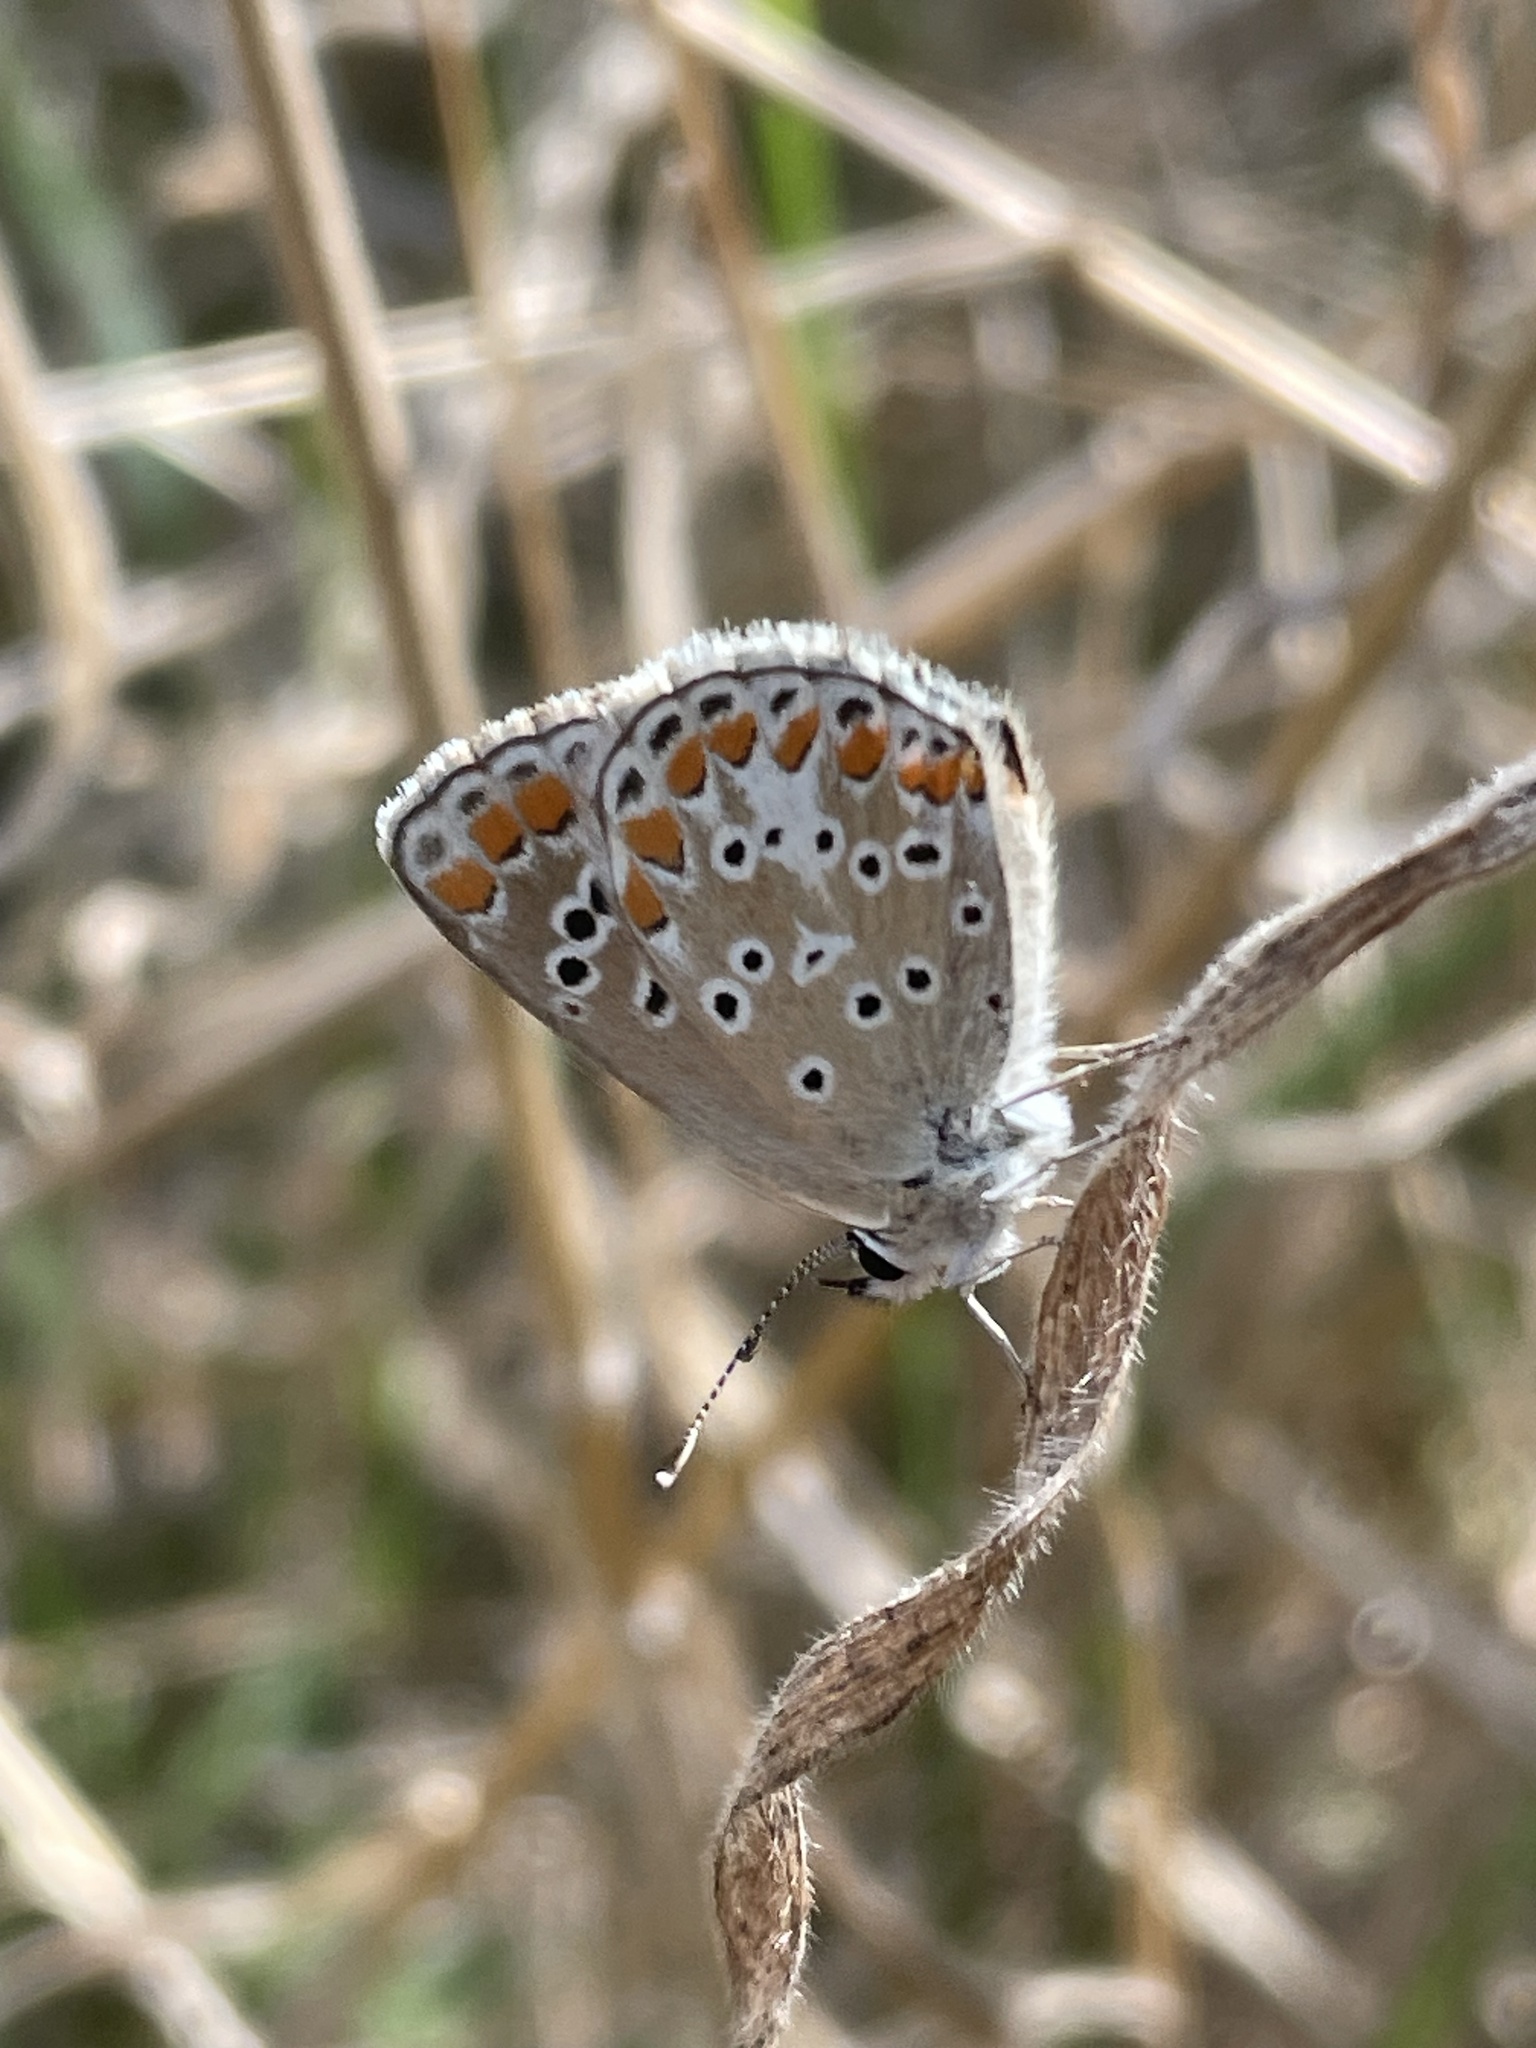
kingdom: Animalia
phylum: Arthropoda
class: Insecta
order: Lepidoptera
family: Lycaenidae
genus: Aricia
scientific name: Aricia agestis
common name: Brown argus
